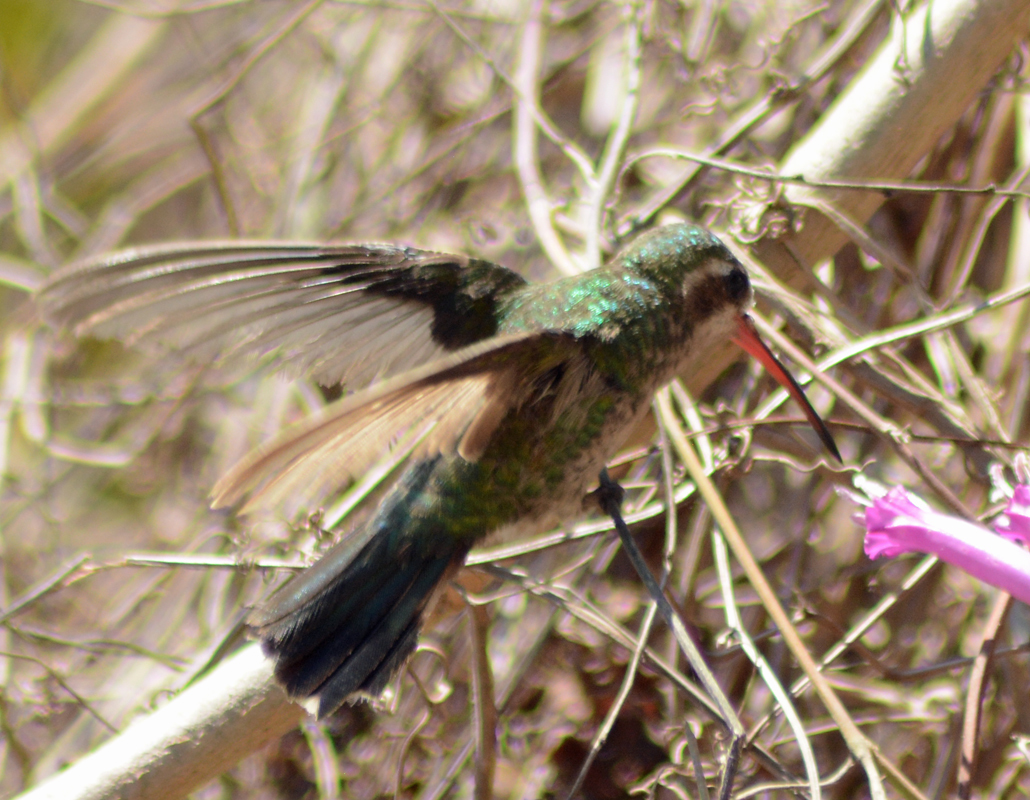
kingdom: Animalia
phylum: Chordata
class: Aves
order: Apodiformes
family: Trochilidae
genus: Cynanthus
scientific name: Cynanthus latirostris
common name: Broad-billed hummingbird
